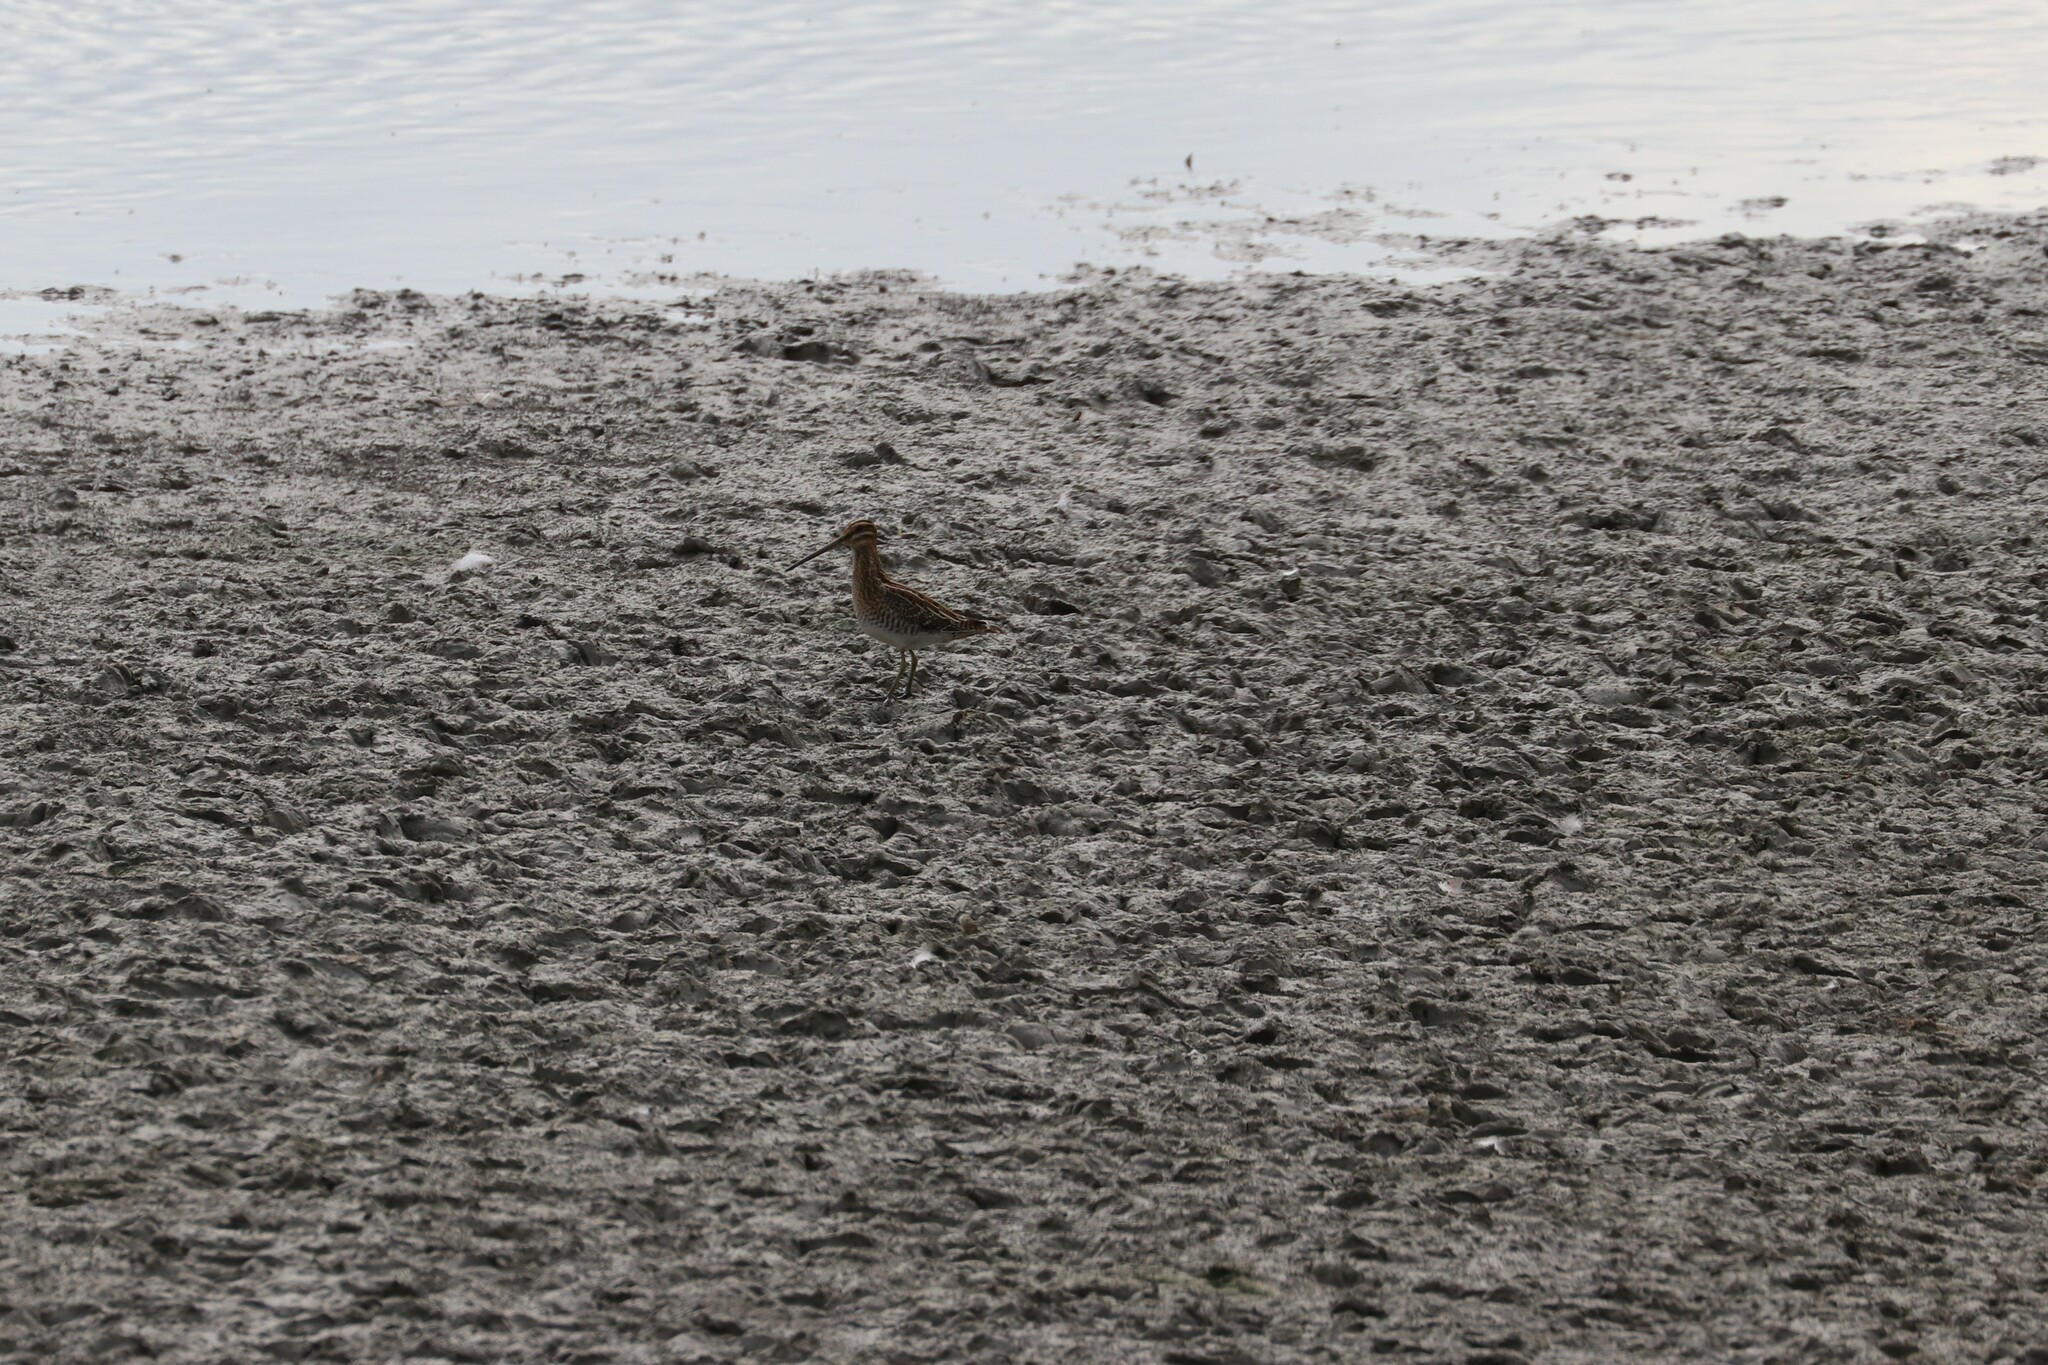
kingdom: Animalia
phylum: Chordata
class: Aves
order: Charadriiformes
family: Scolopacidae
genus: Gallinago
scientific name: Gallinago gallinago
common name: Common snipe
